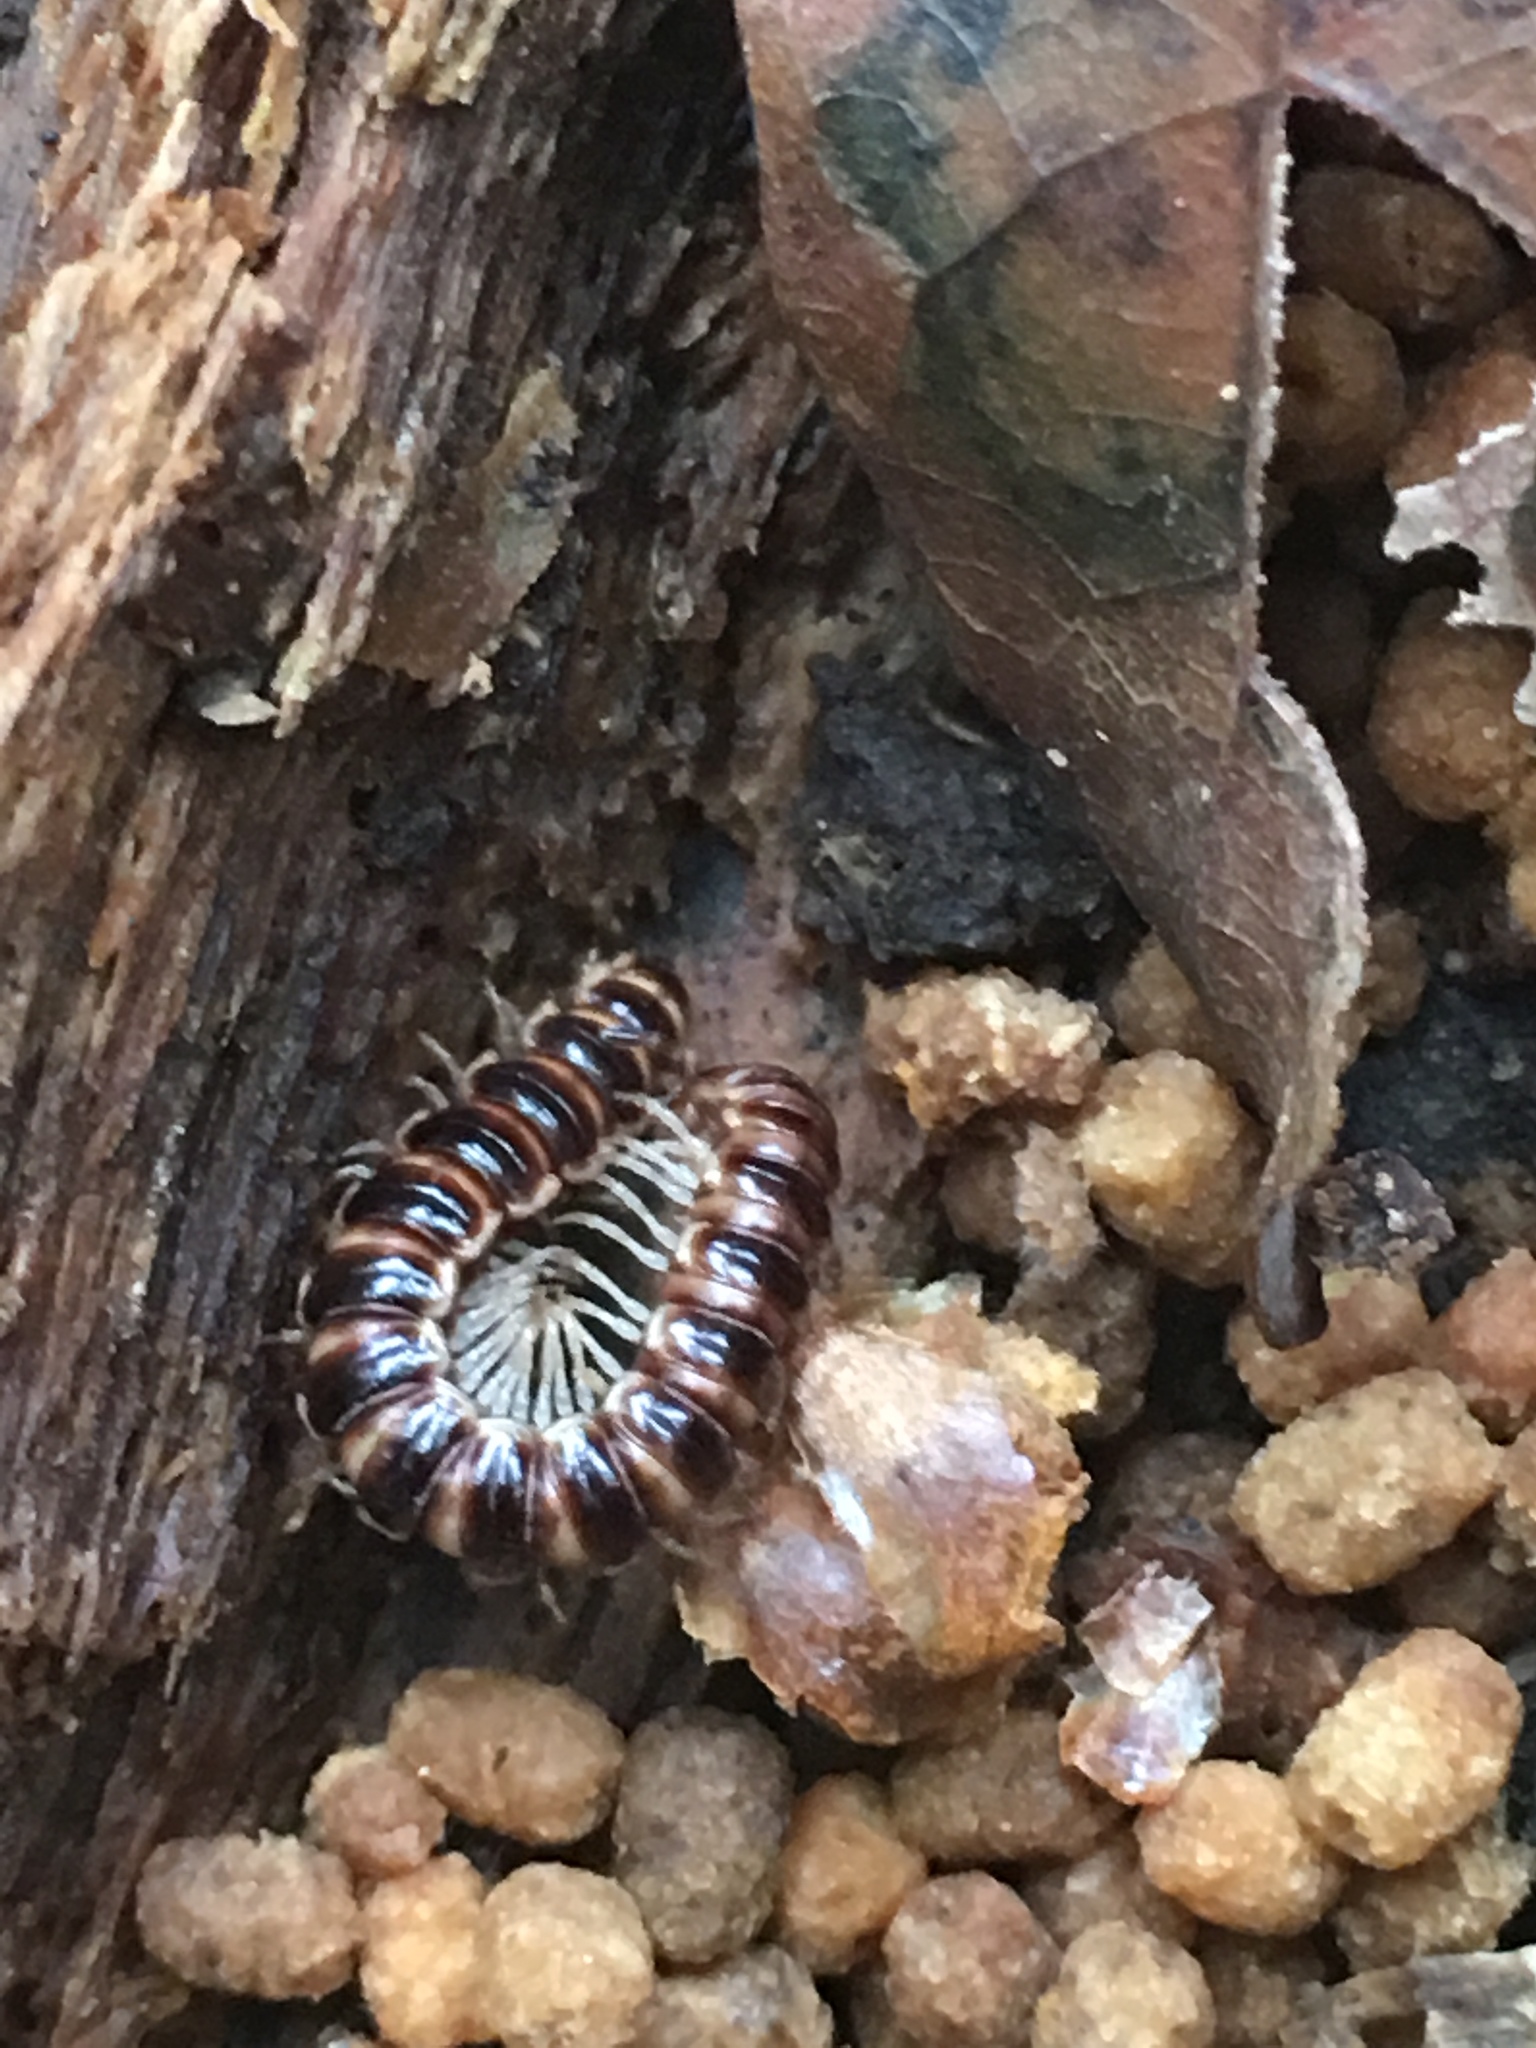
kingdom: Animalia
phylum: Arthropoda
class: Diplopoda
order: Polydesmida
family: Paradoxosomatidae
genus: Oxidus
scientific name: Oxidus gracilis
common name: Greenhouse millipede
